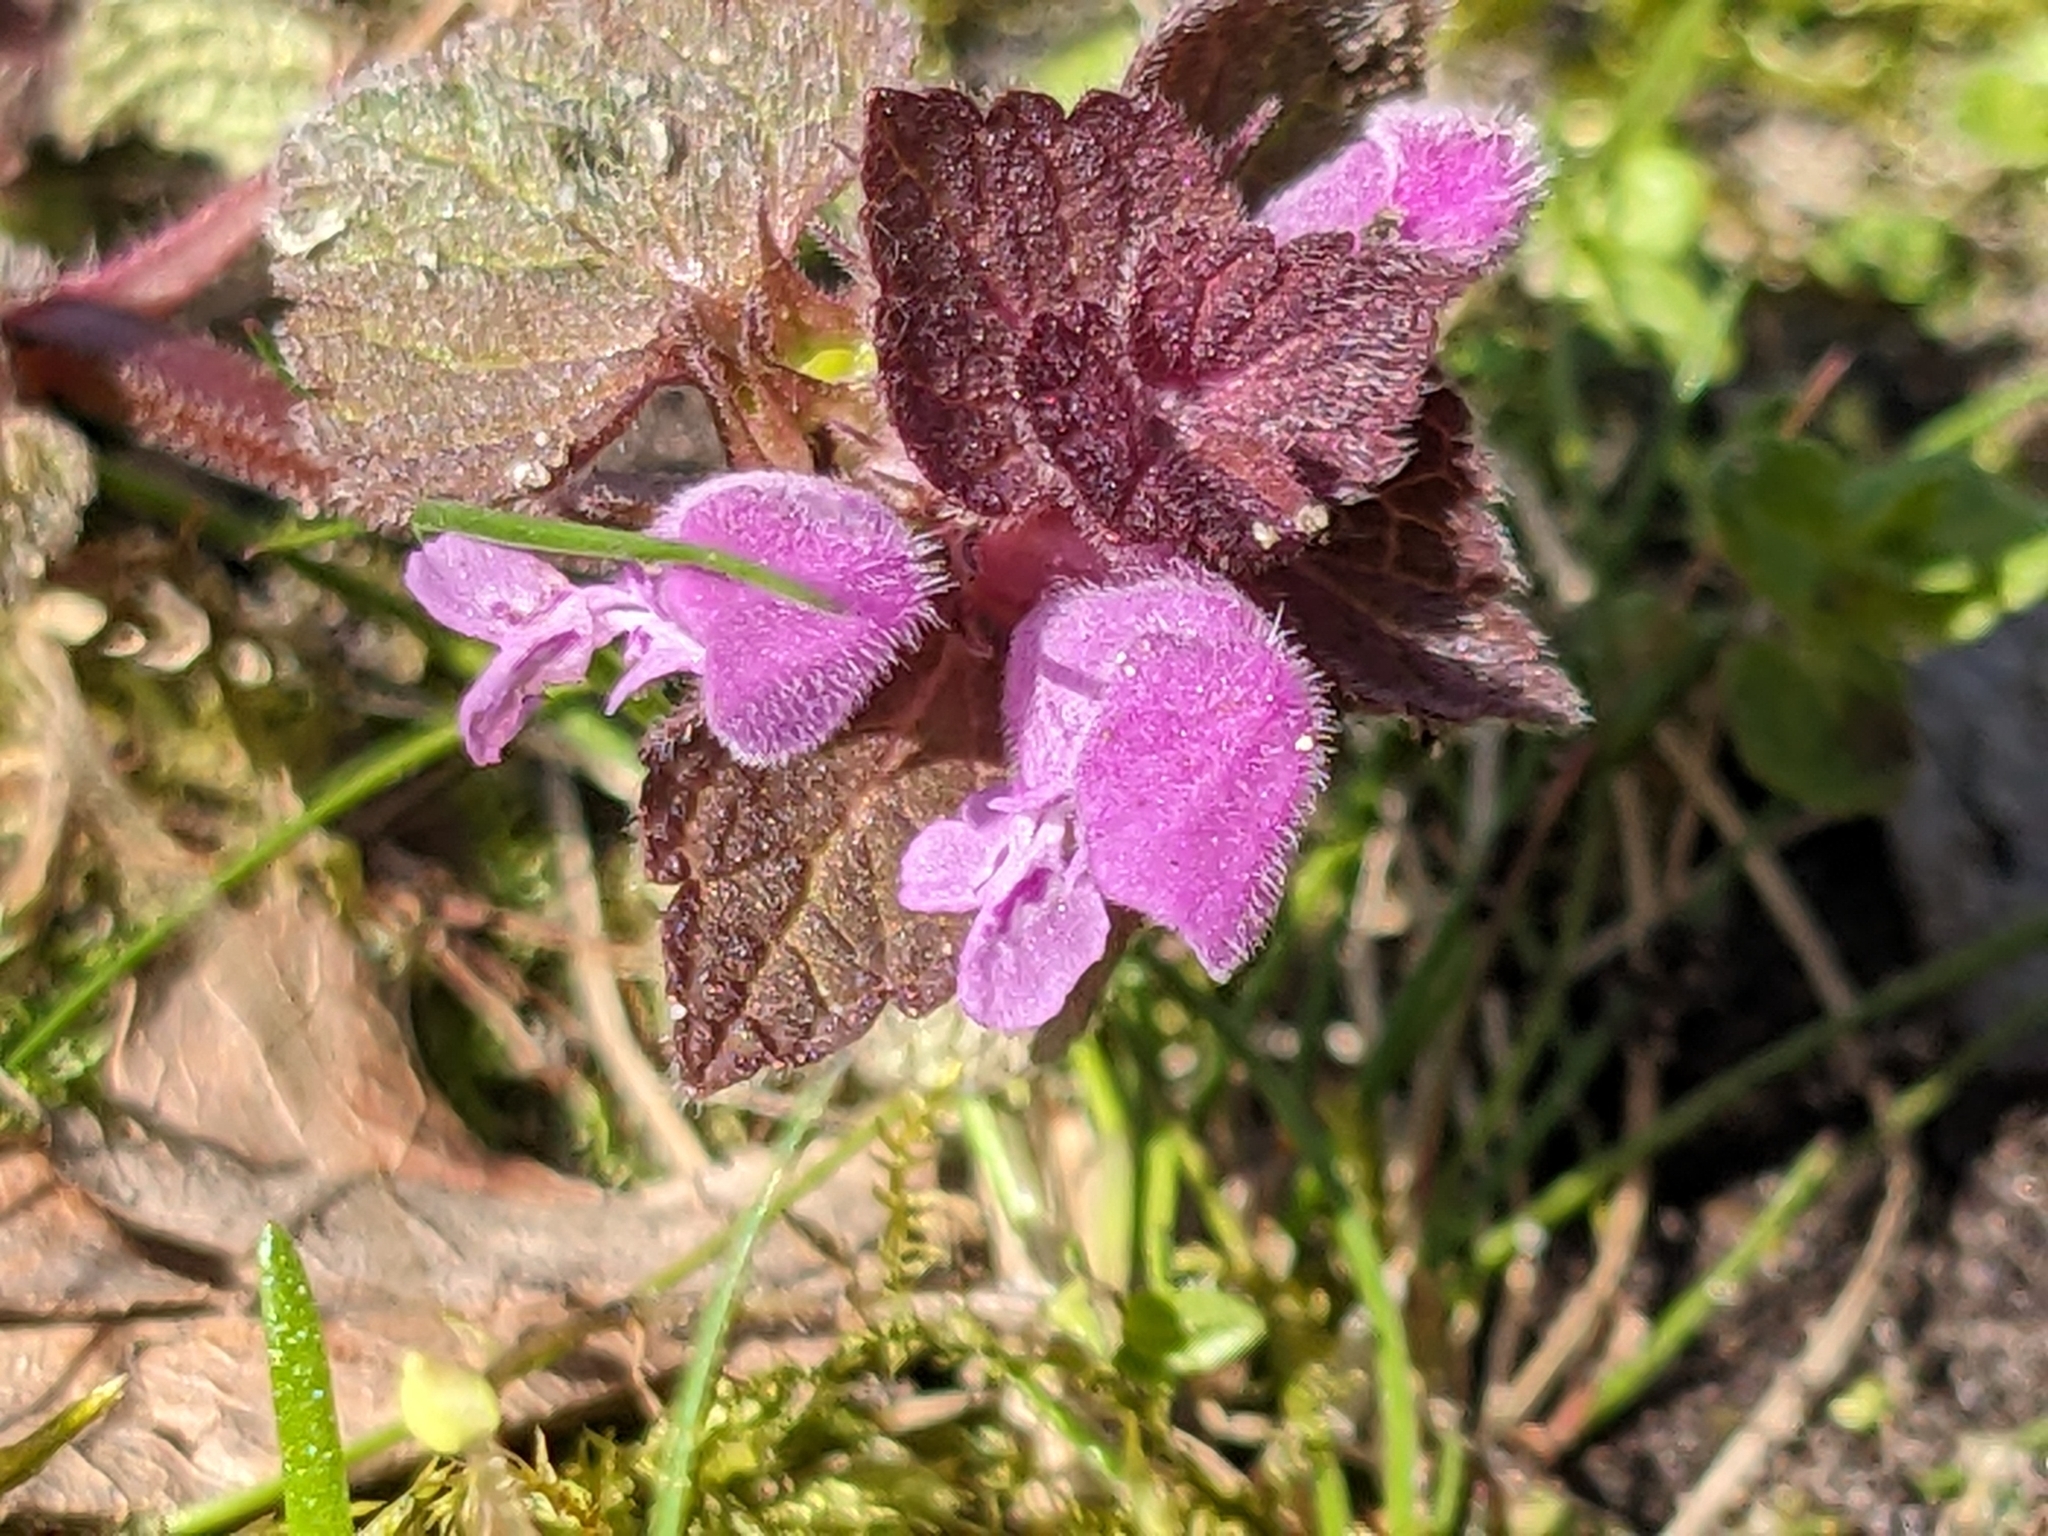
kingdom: Plantae
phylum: Tracheophyta
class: Magnoliopsida
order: Lamiales
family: Lamiaceae
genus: Lamium
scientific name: Lamium purpureum
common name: Red dead-nettle
